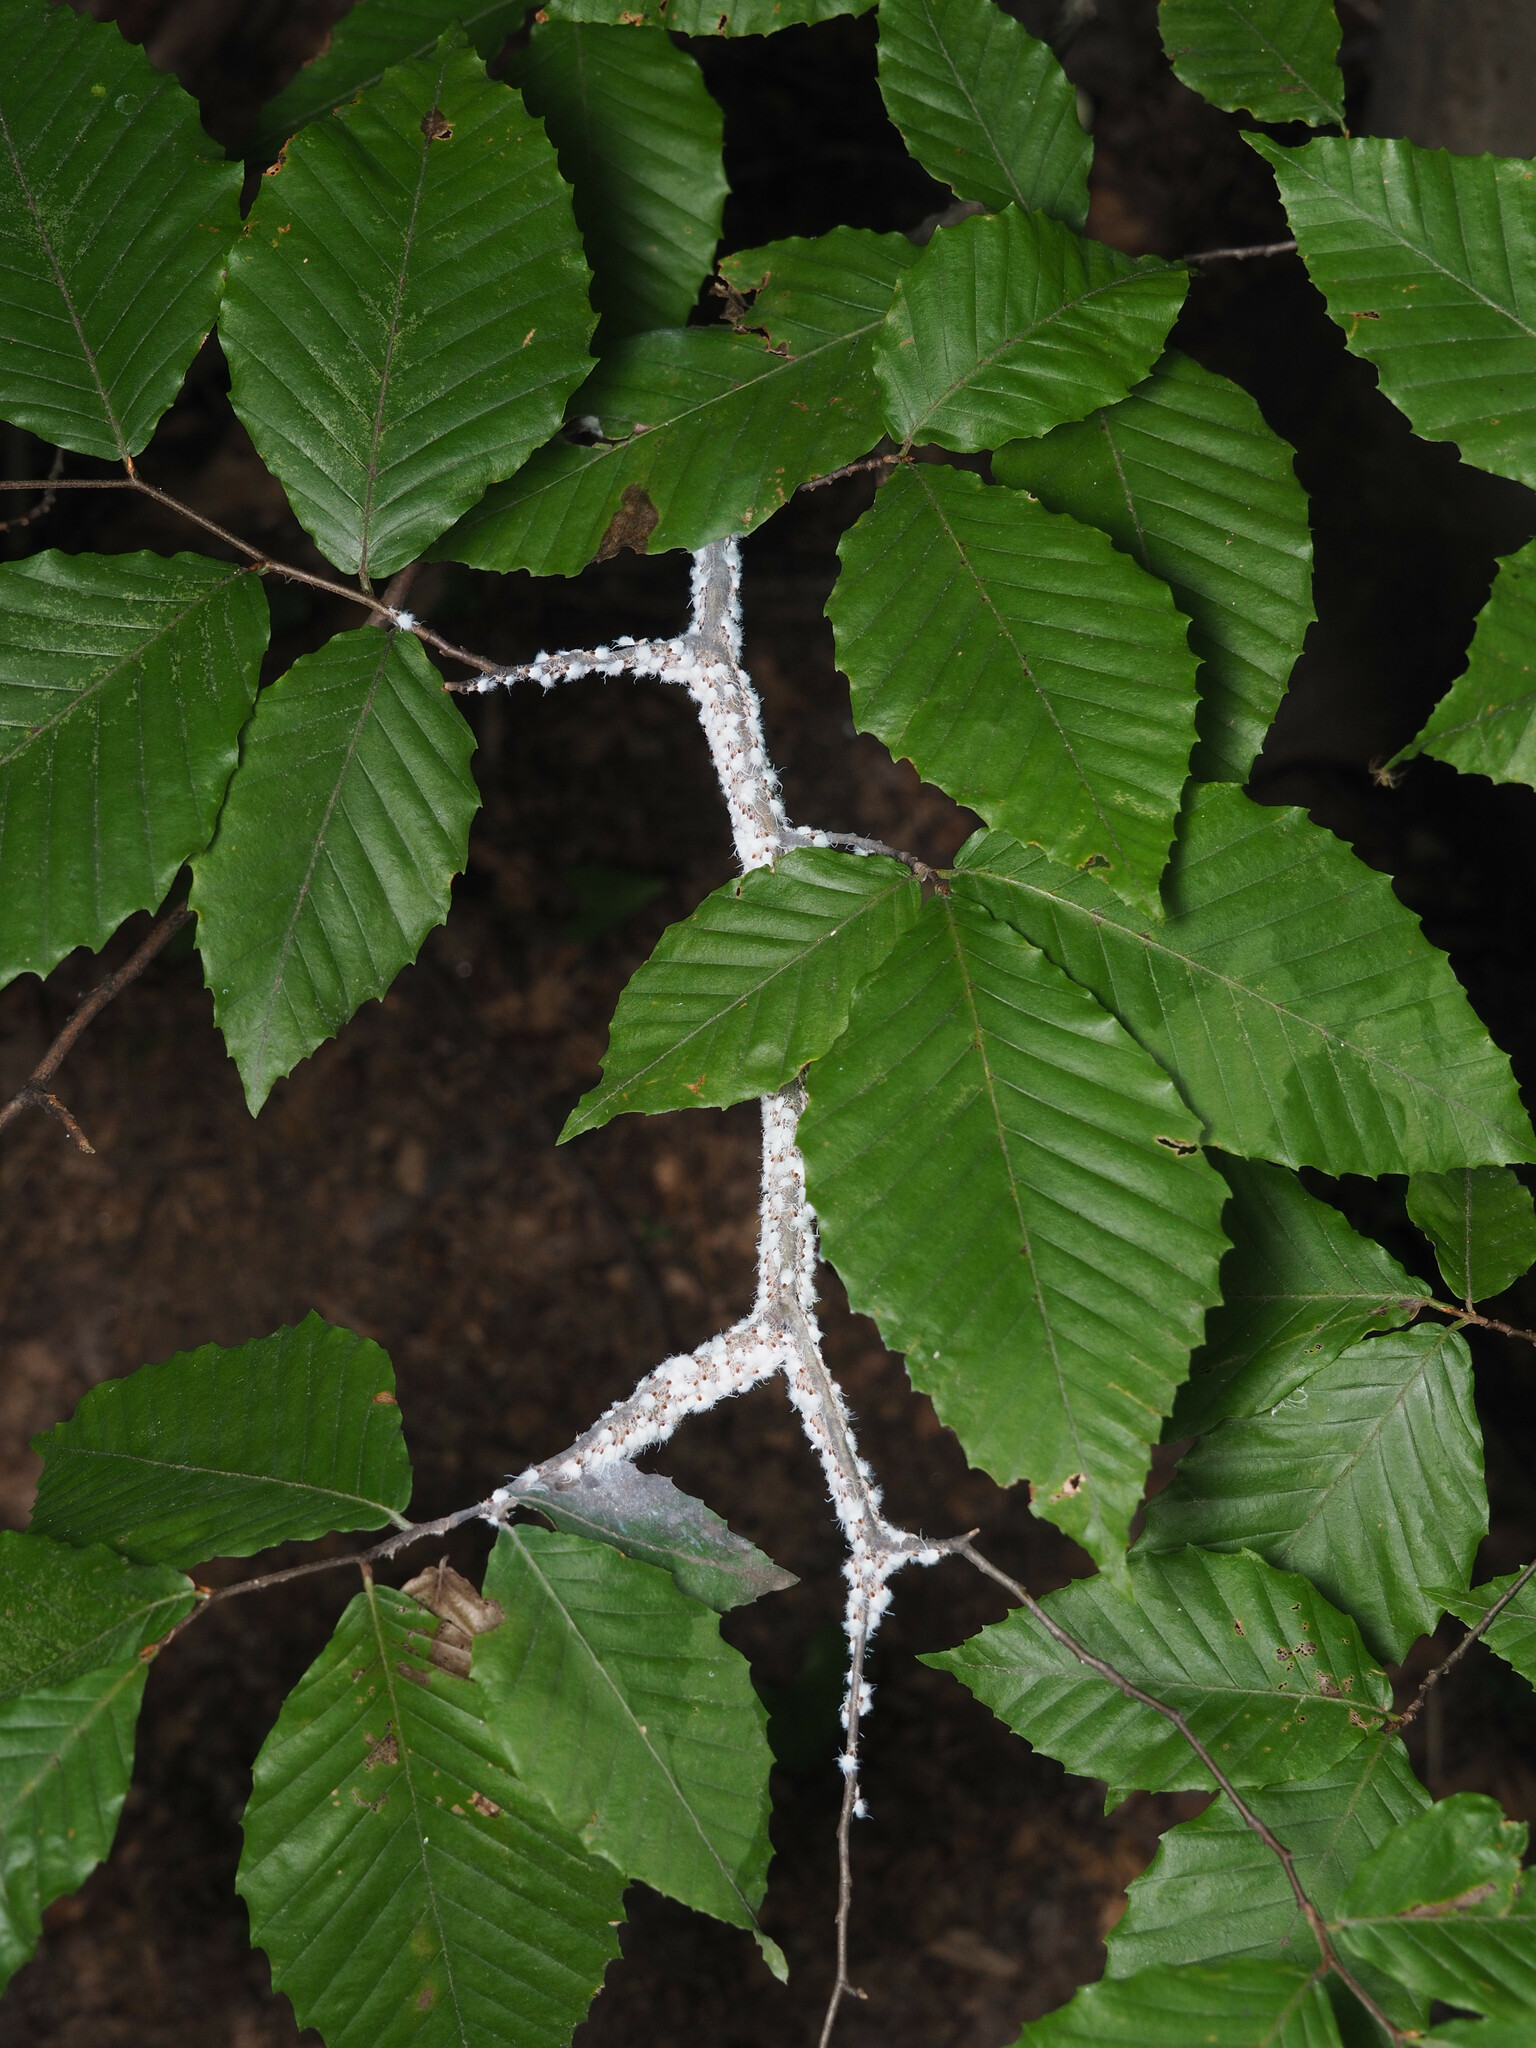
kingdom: Animalia
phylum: Arthropoda
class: Insecta
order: Hemiptera
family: Aphididae
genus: Grylloprociphilus
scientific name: Grylloprociphilus imbricator
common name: Beech blight aphid
